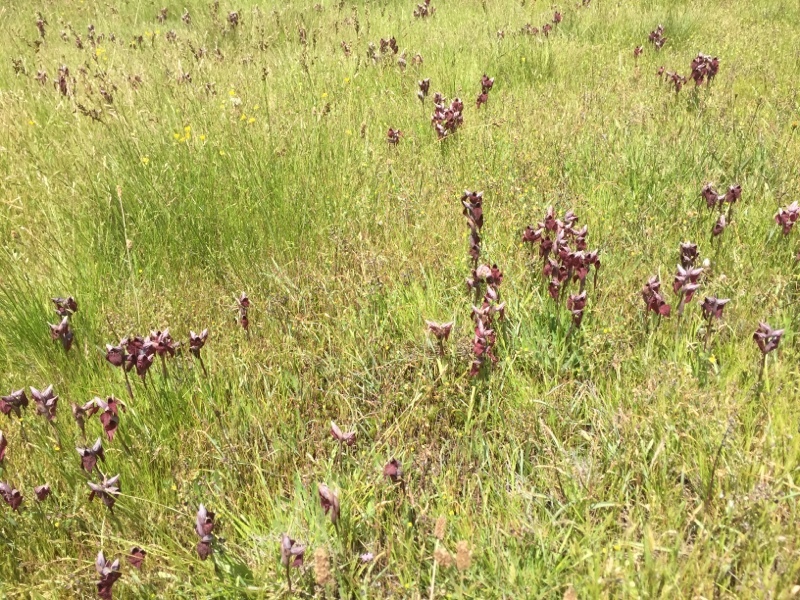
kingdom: Plantae
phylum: Tracheophyta
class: Liliopsida
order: Asparagales
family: Orchidaceae
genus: Serapias
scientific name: Serapias cordigera
